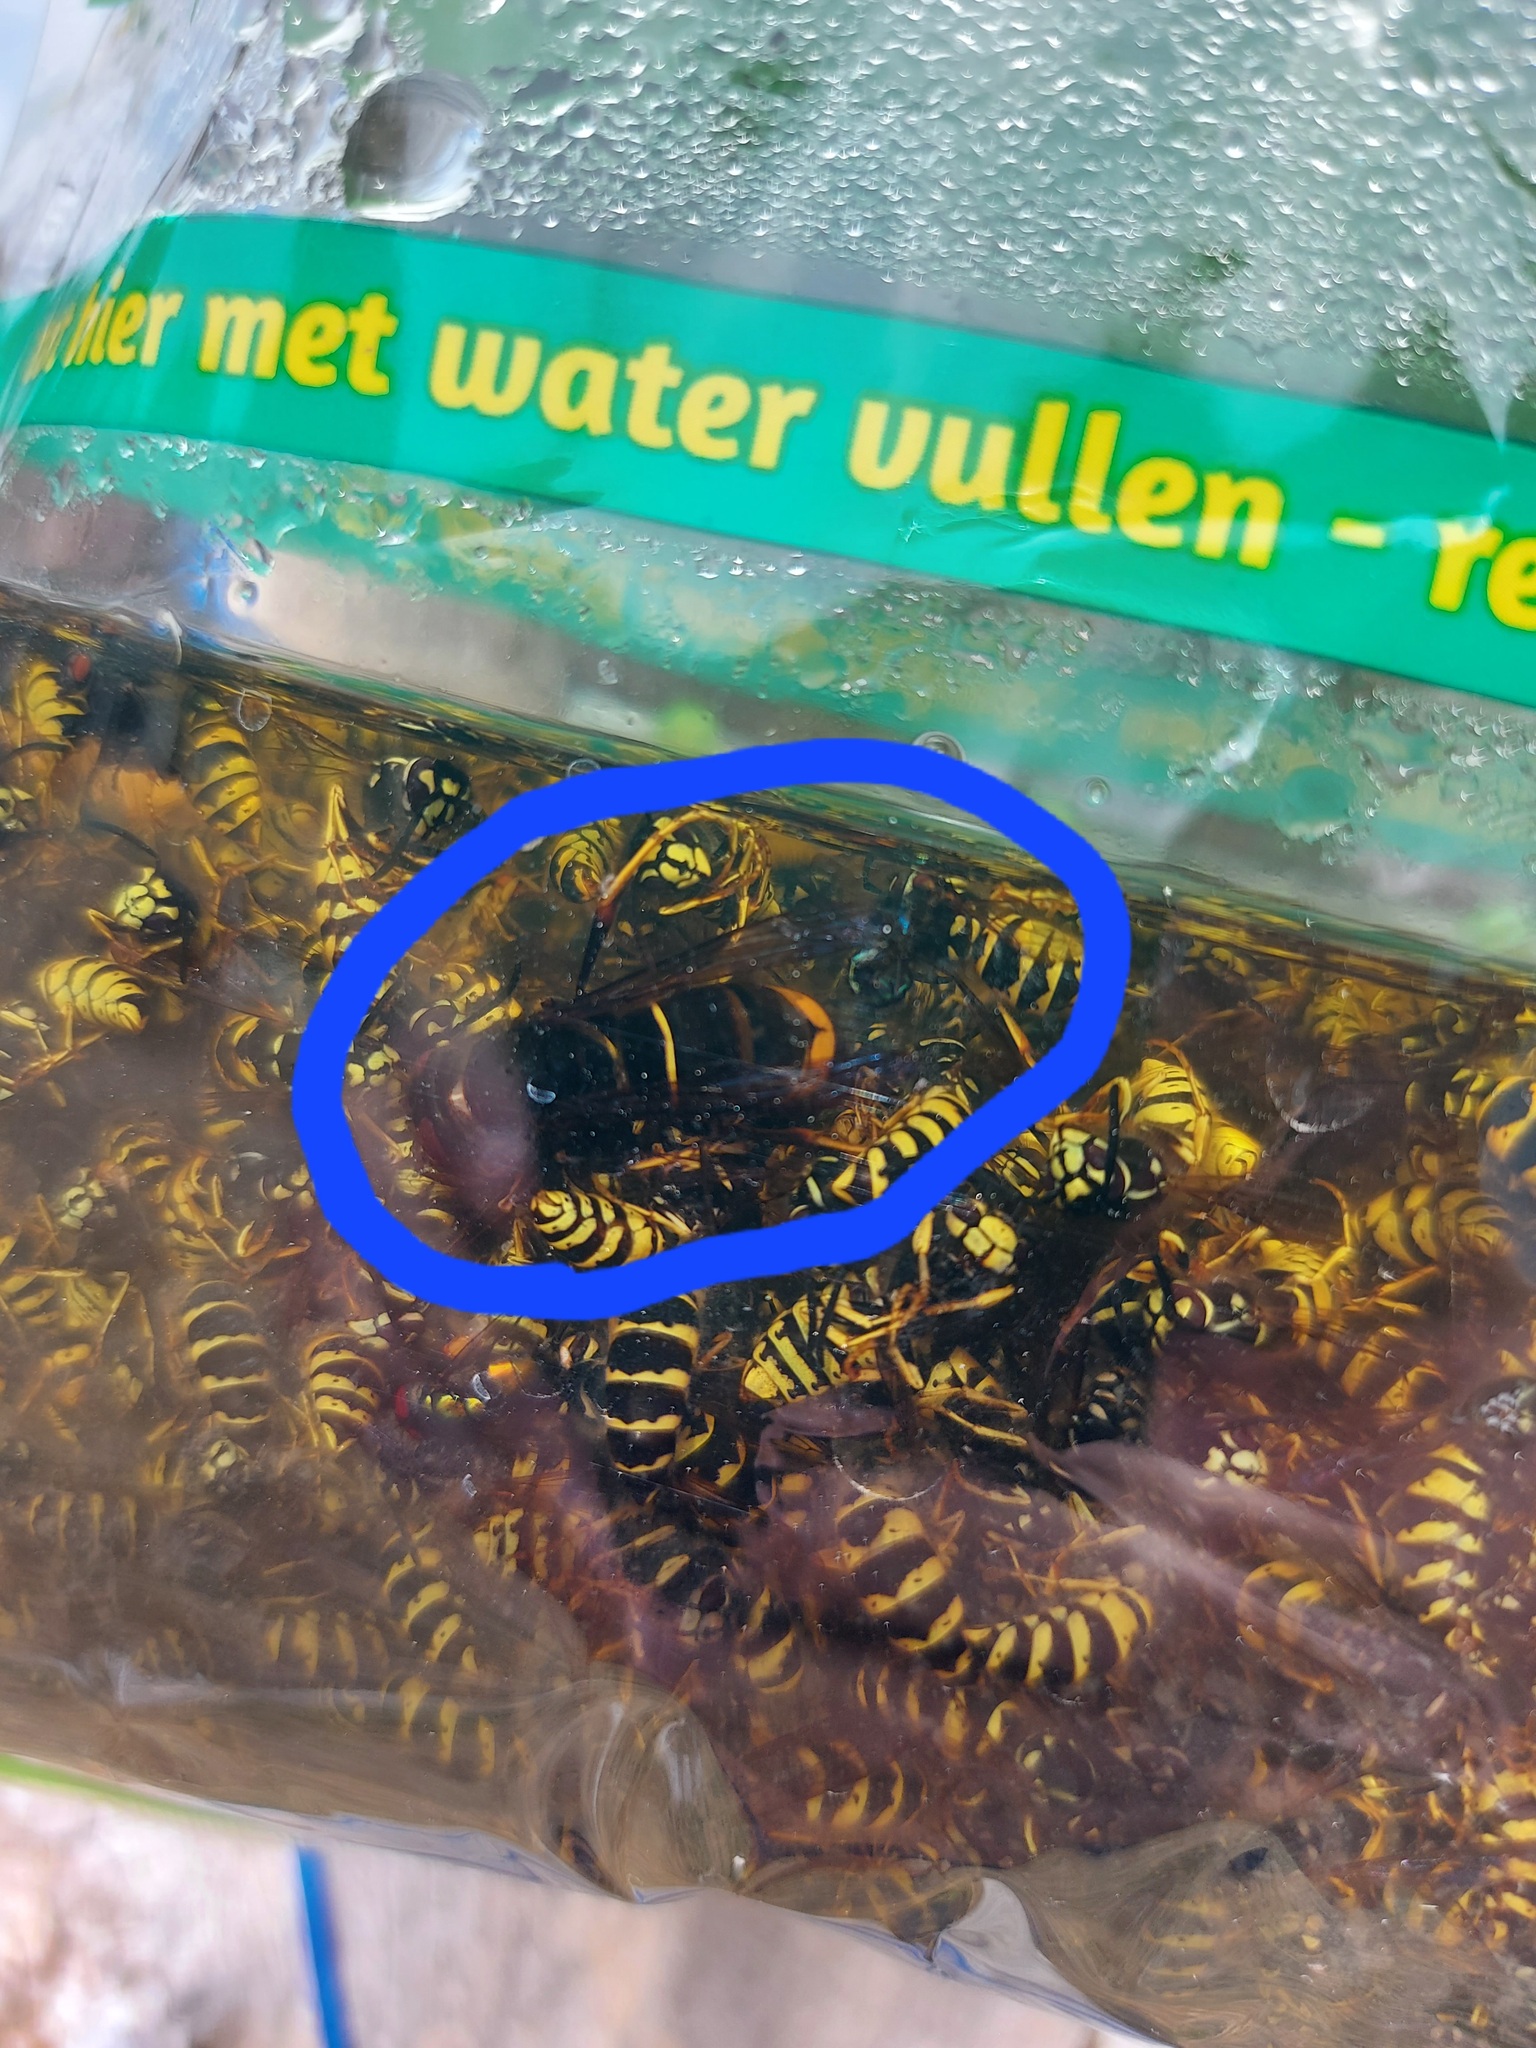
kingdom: Animalia
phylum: Arthropoda
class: Insecta
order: Hymenoptera
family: Vespidae
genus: Vespa
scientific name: Vespa velutina
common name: Asian hornet
